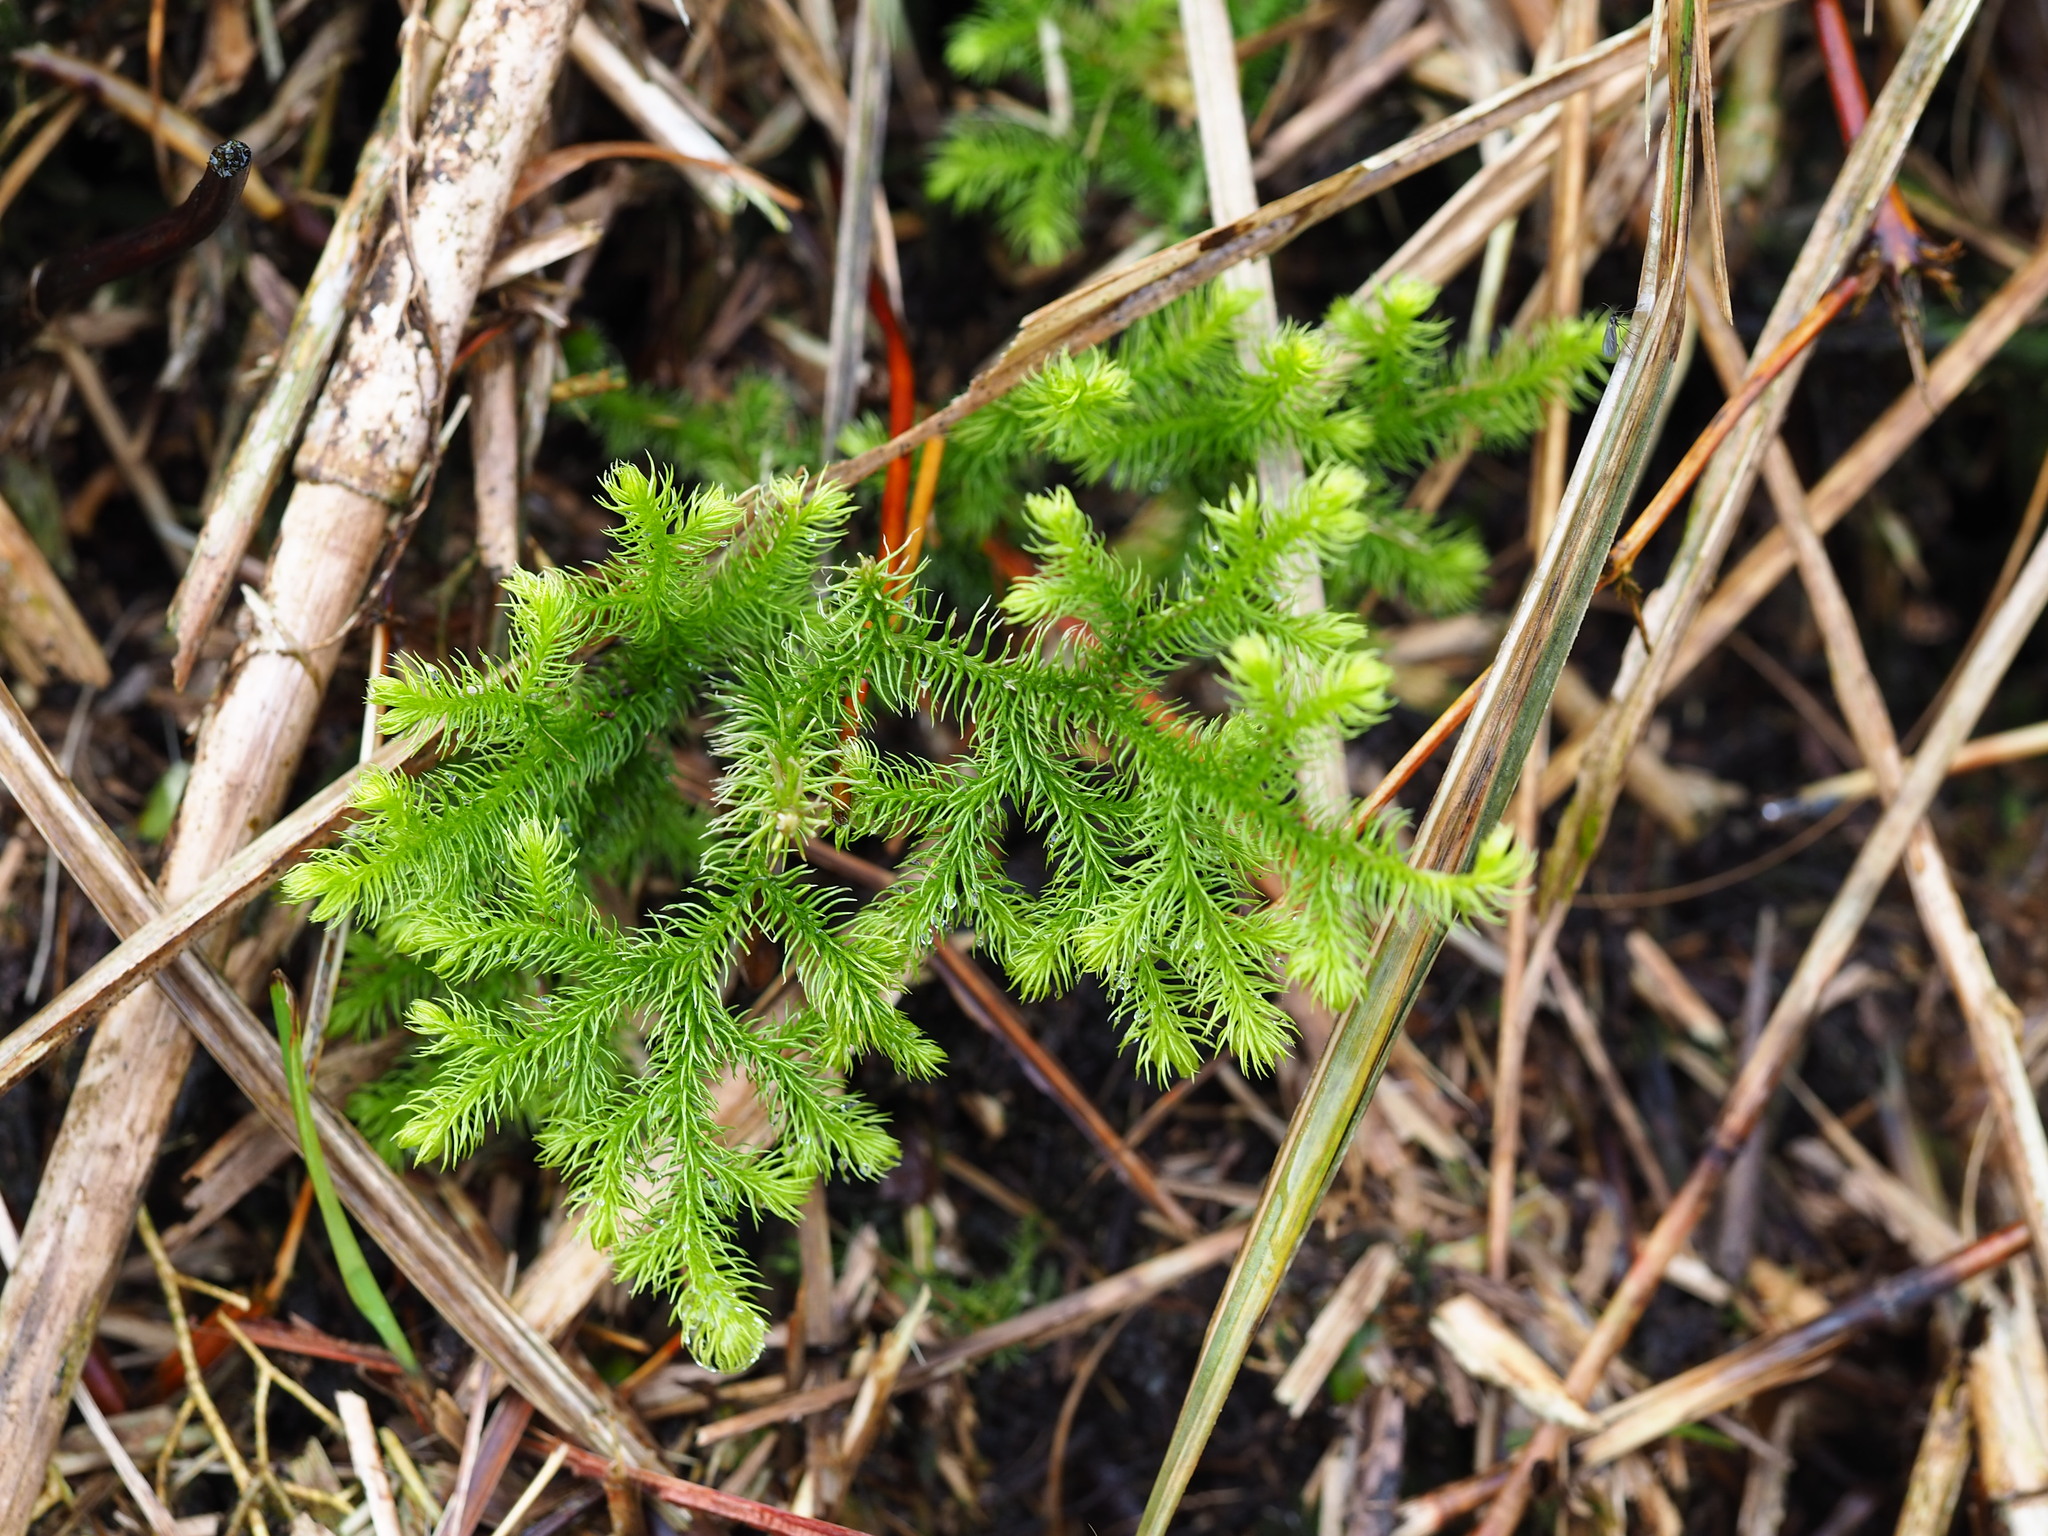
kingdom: Plantae
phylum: Tracheophyta
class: Lycopodiopsida
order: Lycopodiales
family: Lycopodiaceae
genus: Palhinhaea
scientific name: Palhinhaea cernua
